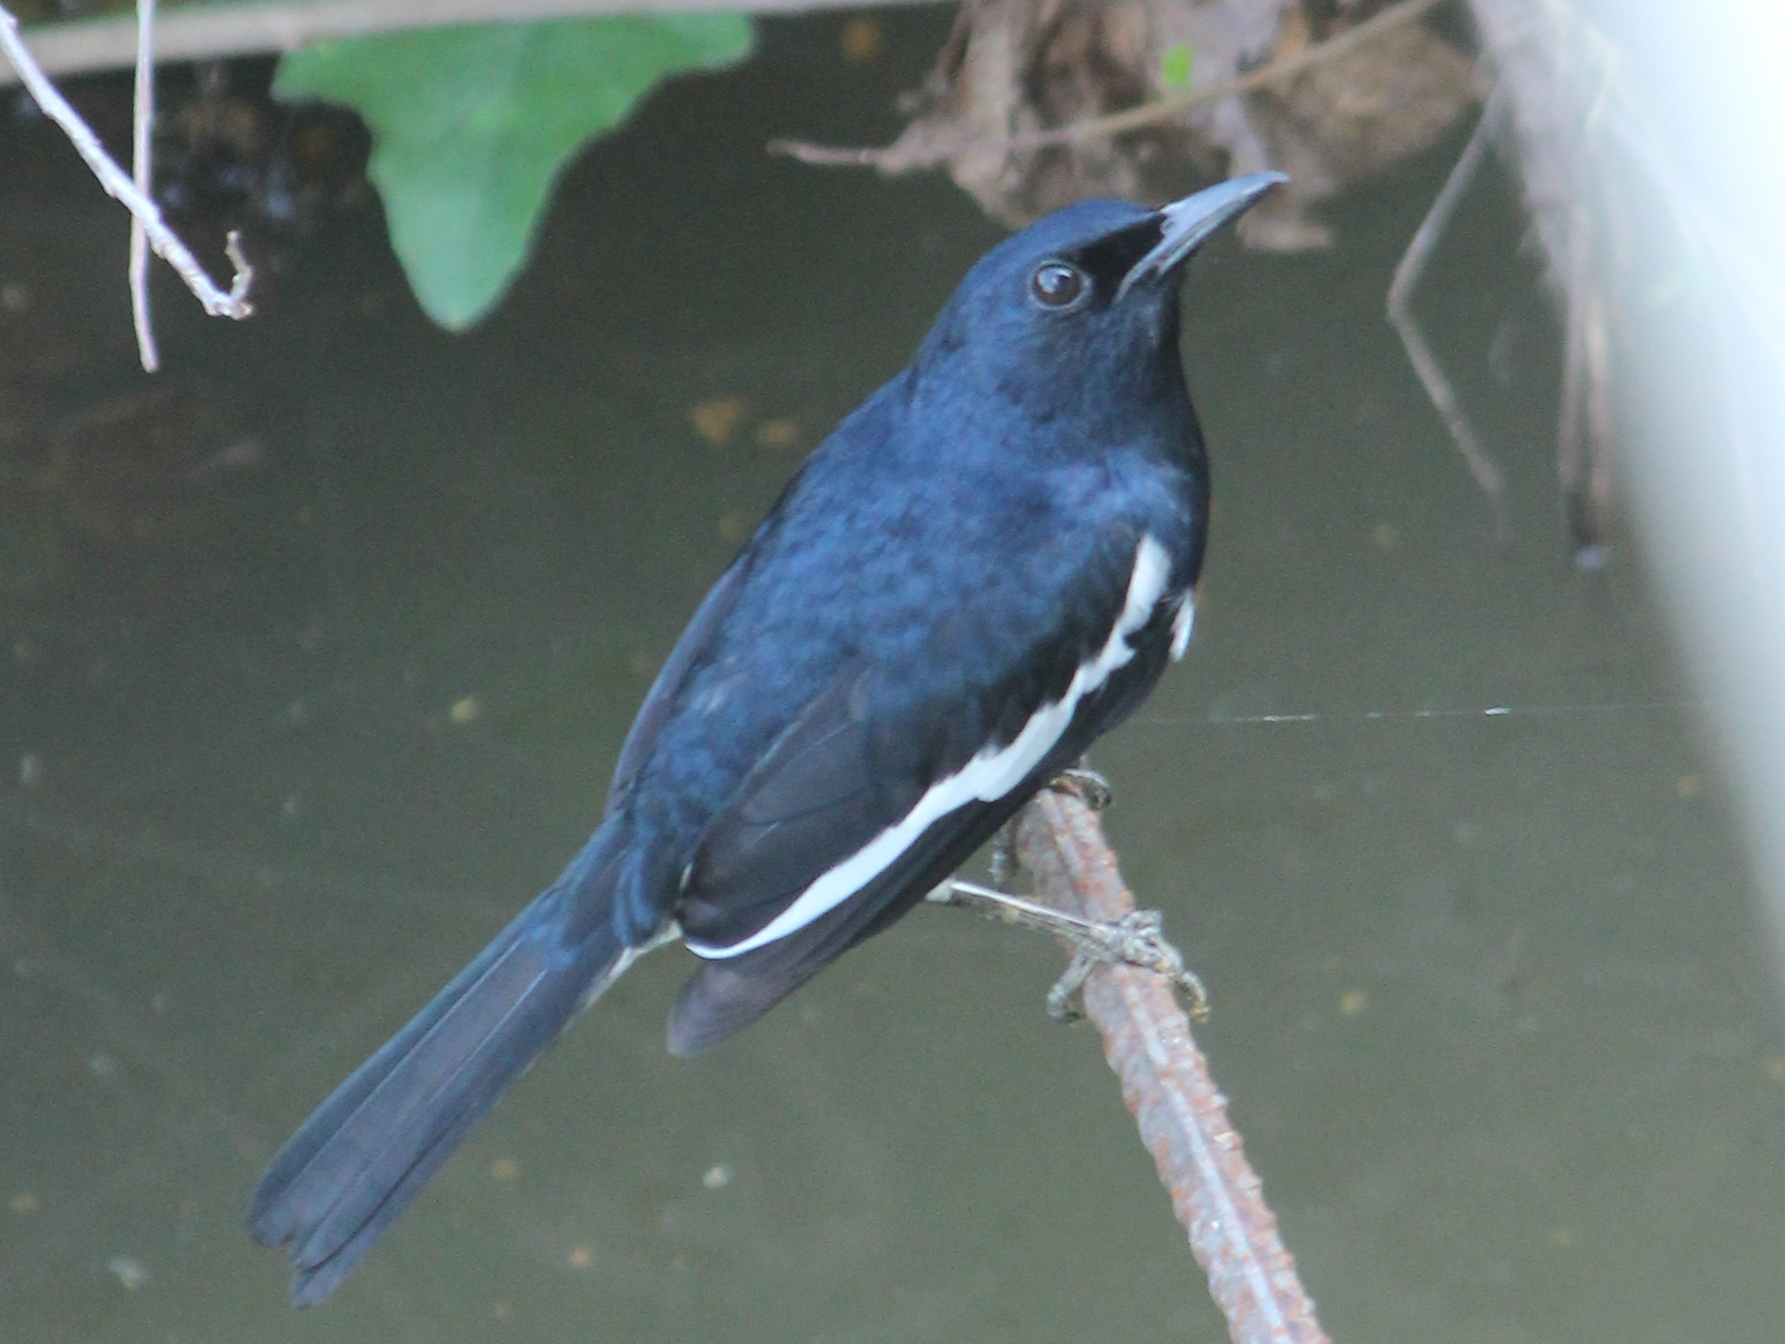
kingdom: Animalia
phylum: Chordata
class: Aves
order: Passeriformes
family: Muscicapidae
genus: Copsychus
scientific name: Copsychus saularis
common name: Oriental magpie-robin
